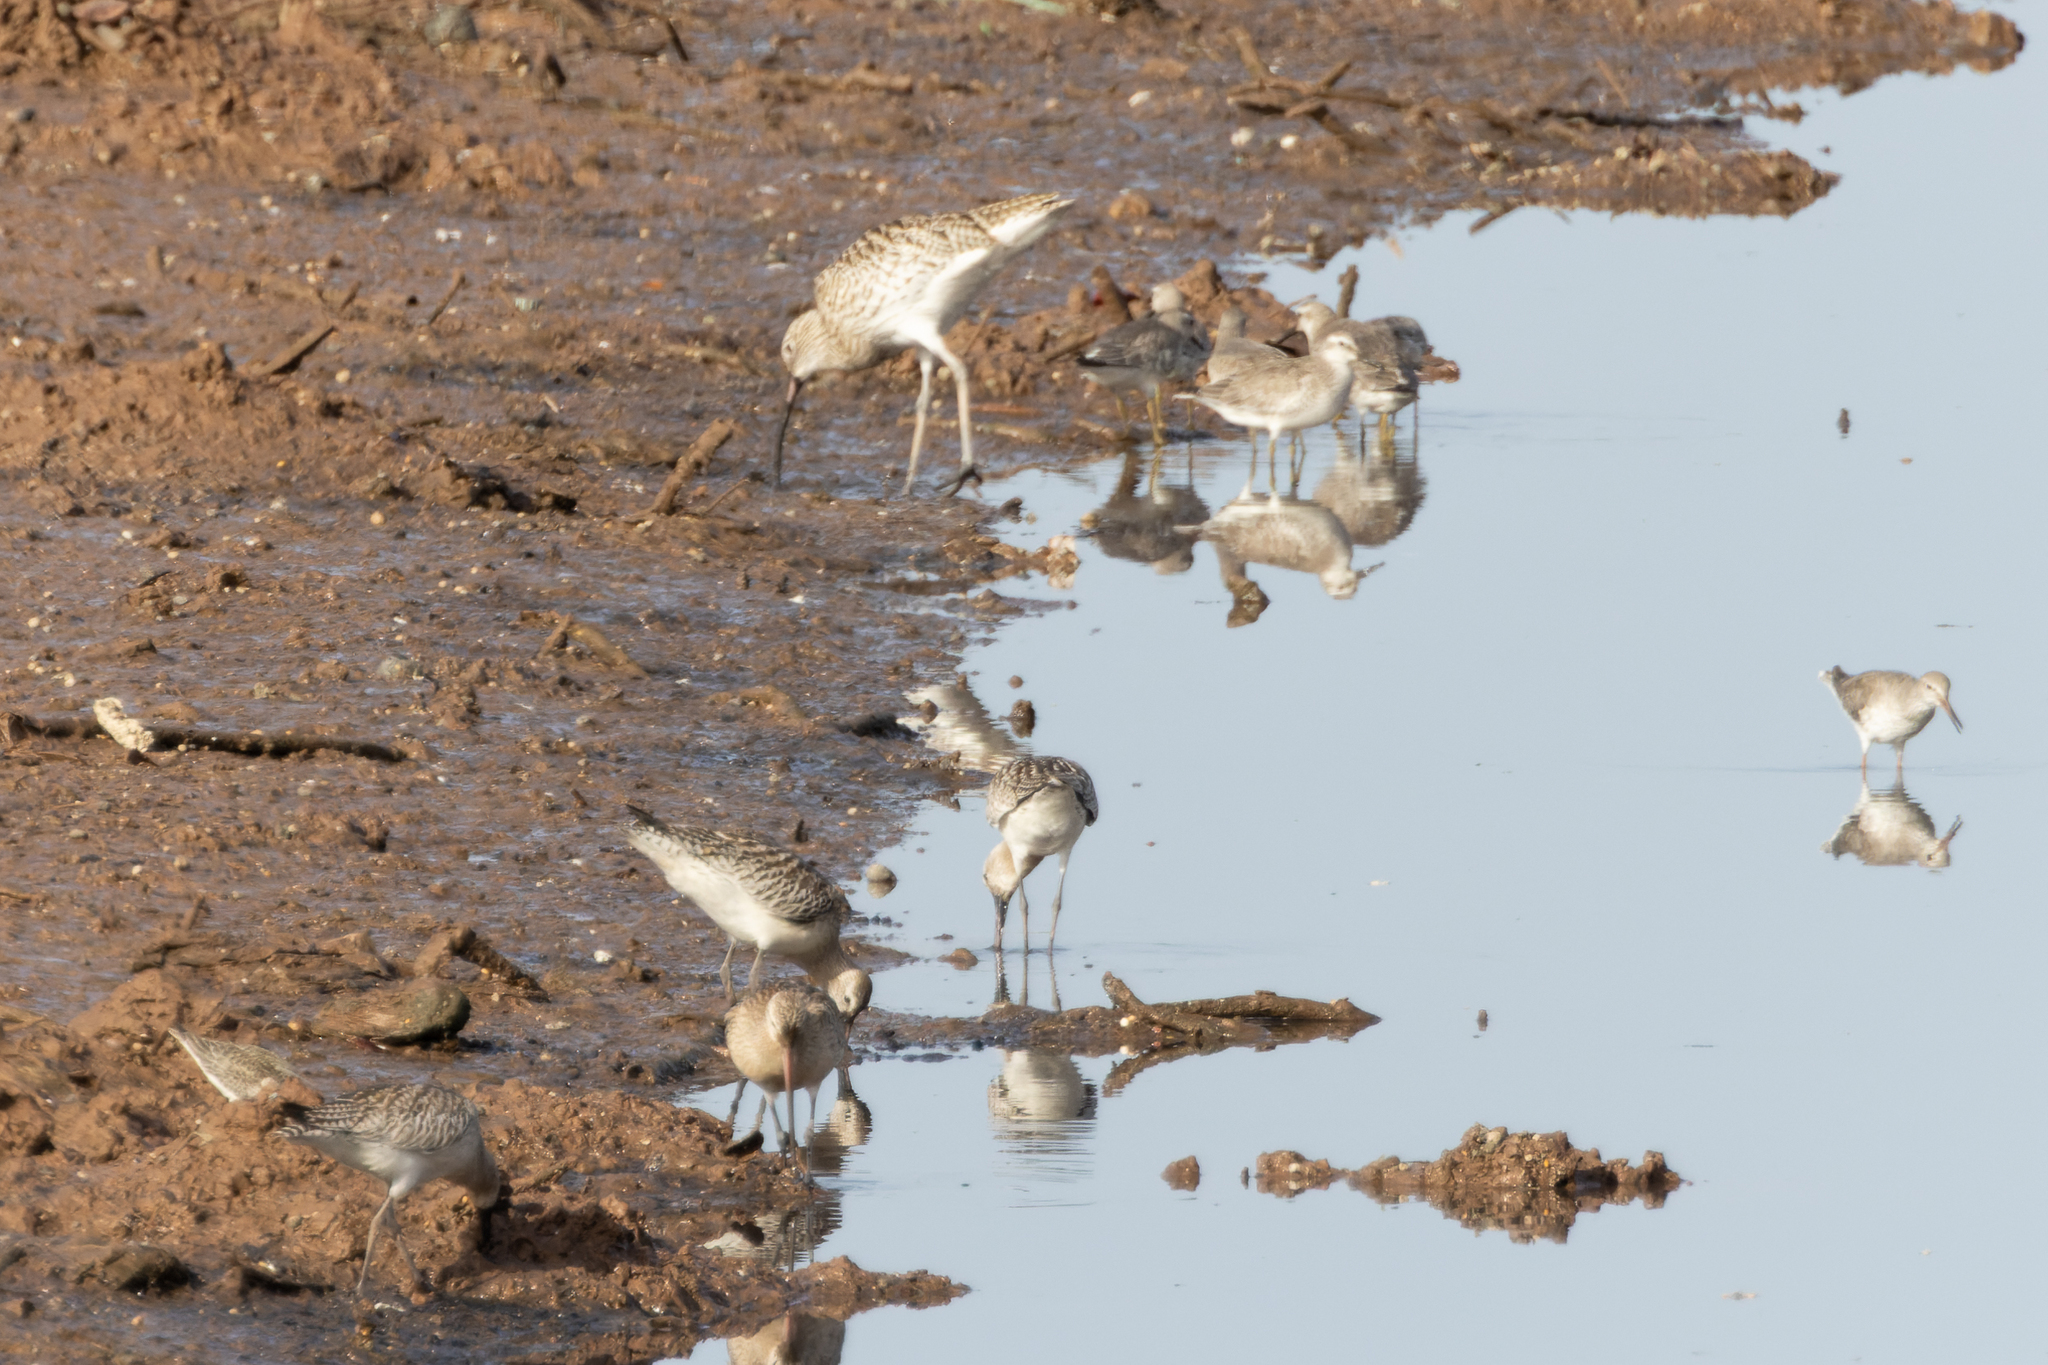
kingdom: Animalia
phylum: Chordata
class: Aves
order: Charadriiformes
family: Scolopacidae
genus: Numenius
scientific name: Numenius arquata
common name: Eurasian curlew
